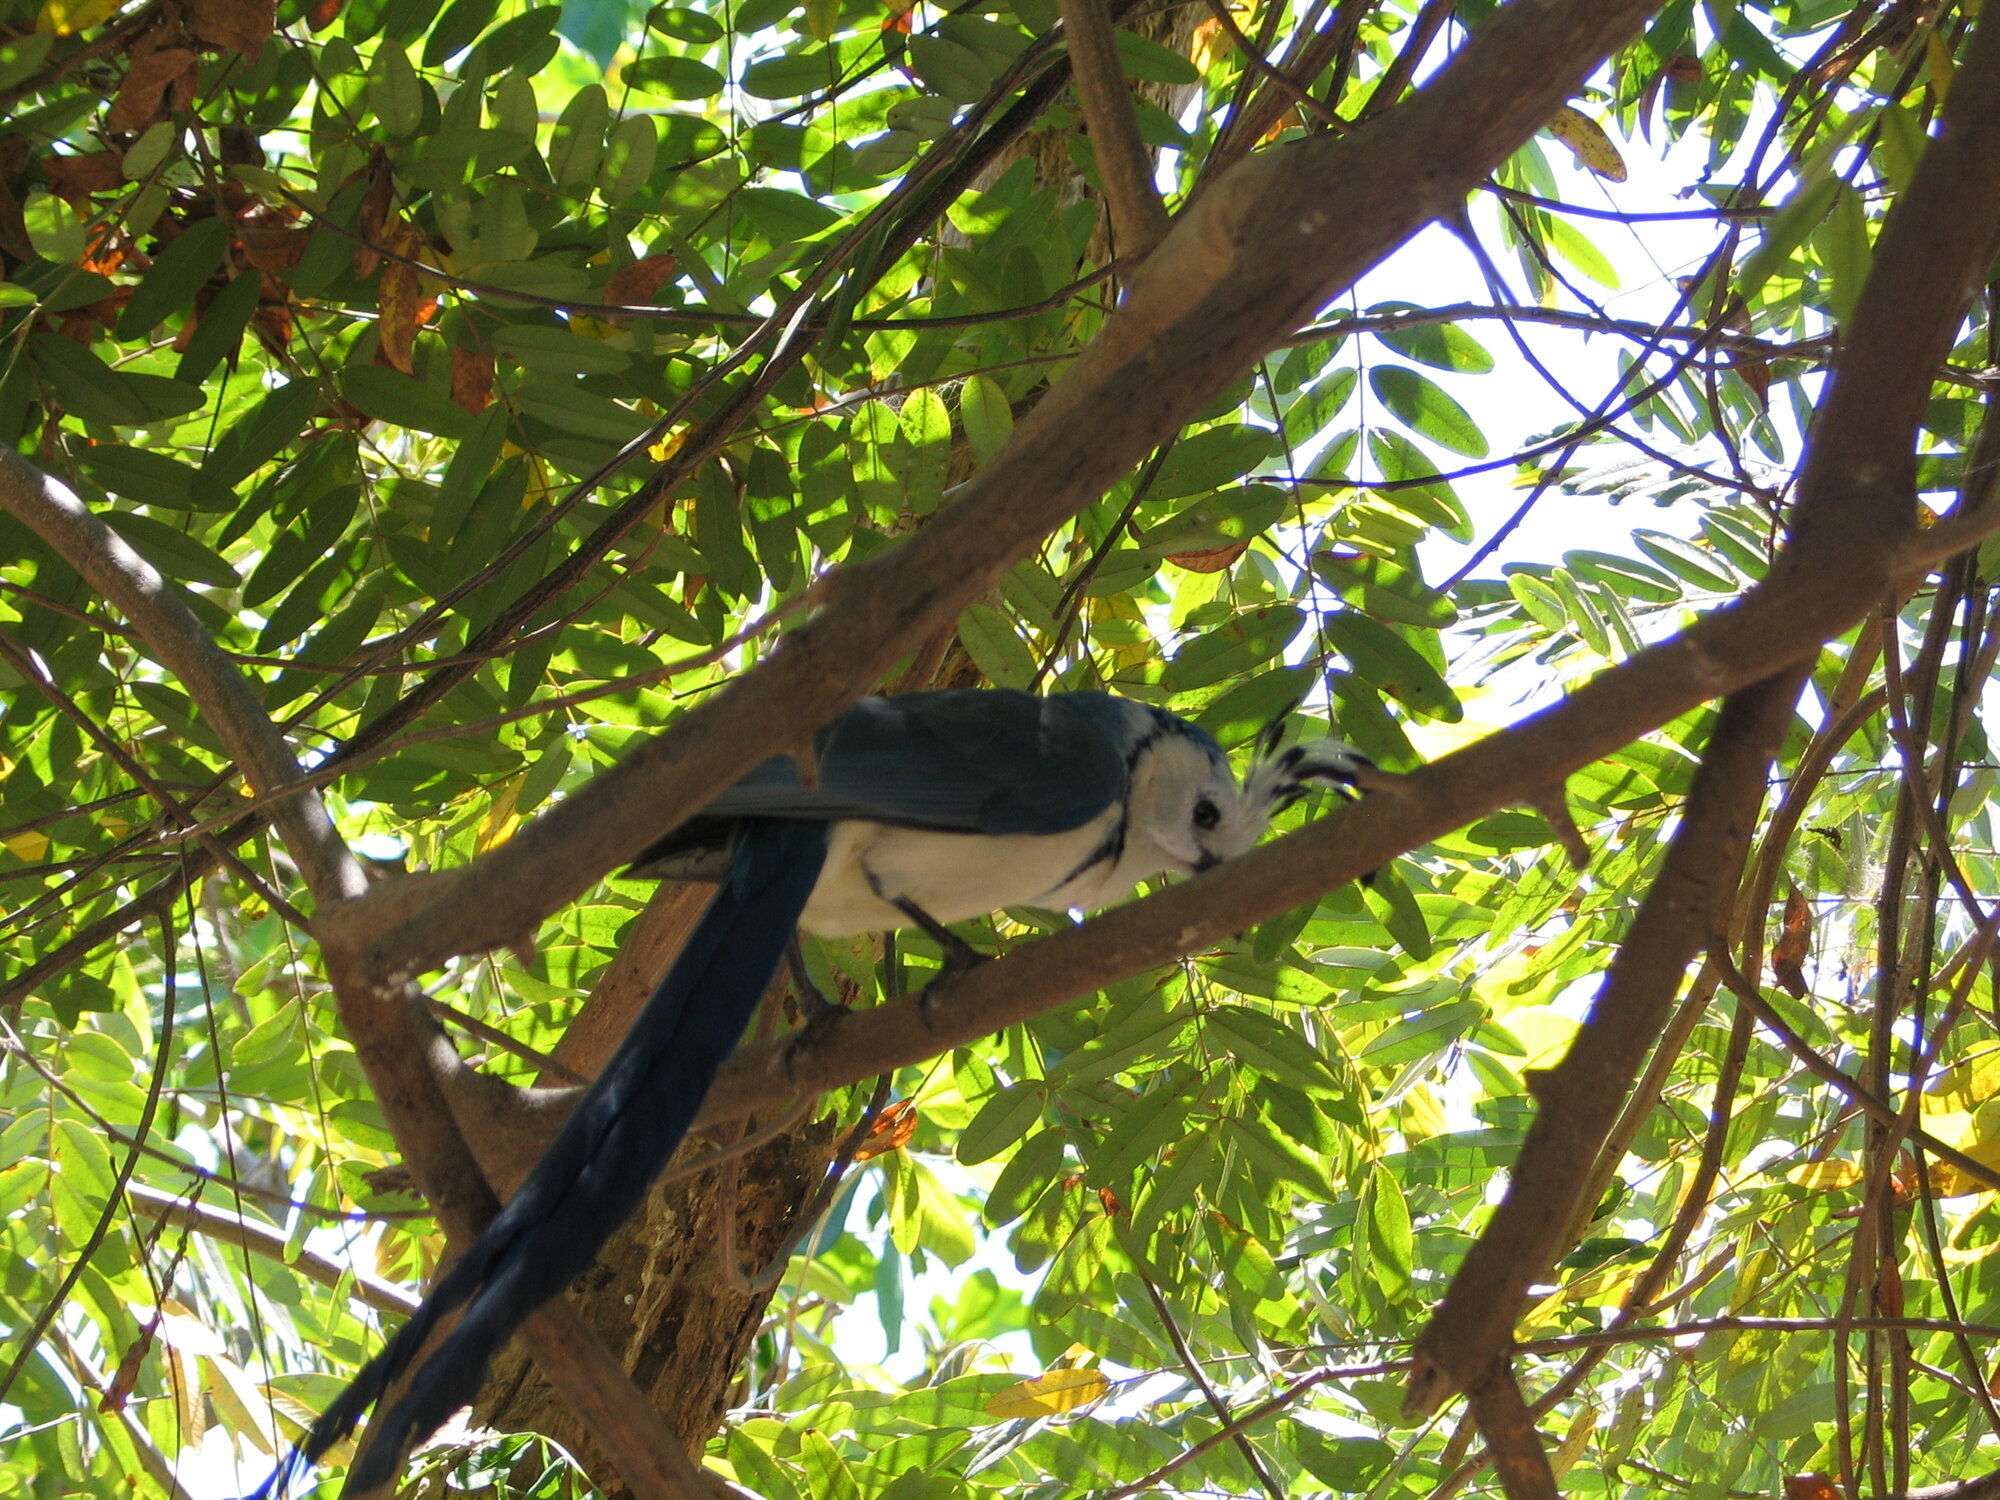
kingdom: Animalia
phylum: Chordata
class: Aves
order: Passeriformes
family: Corvidae
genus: Calocitta
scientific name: Calocitta formosa
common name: White-throated magpie-jay
